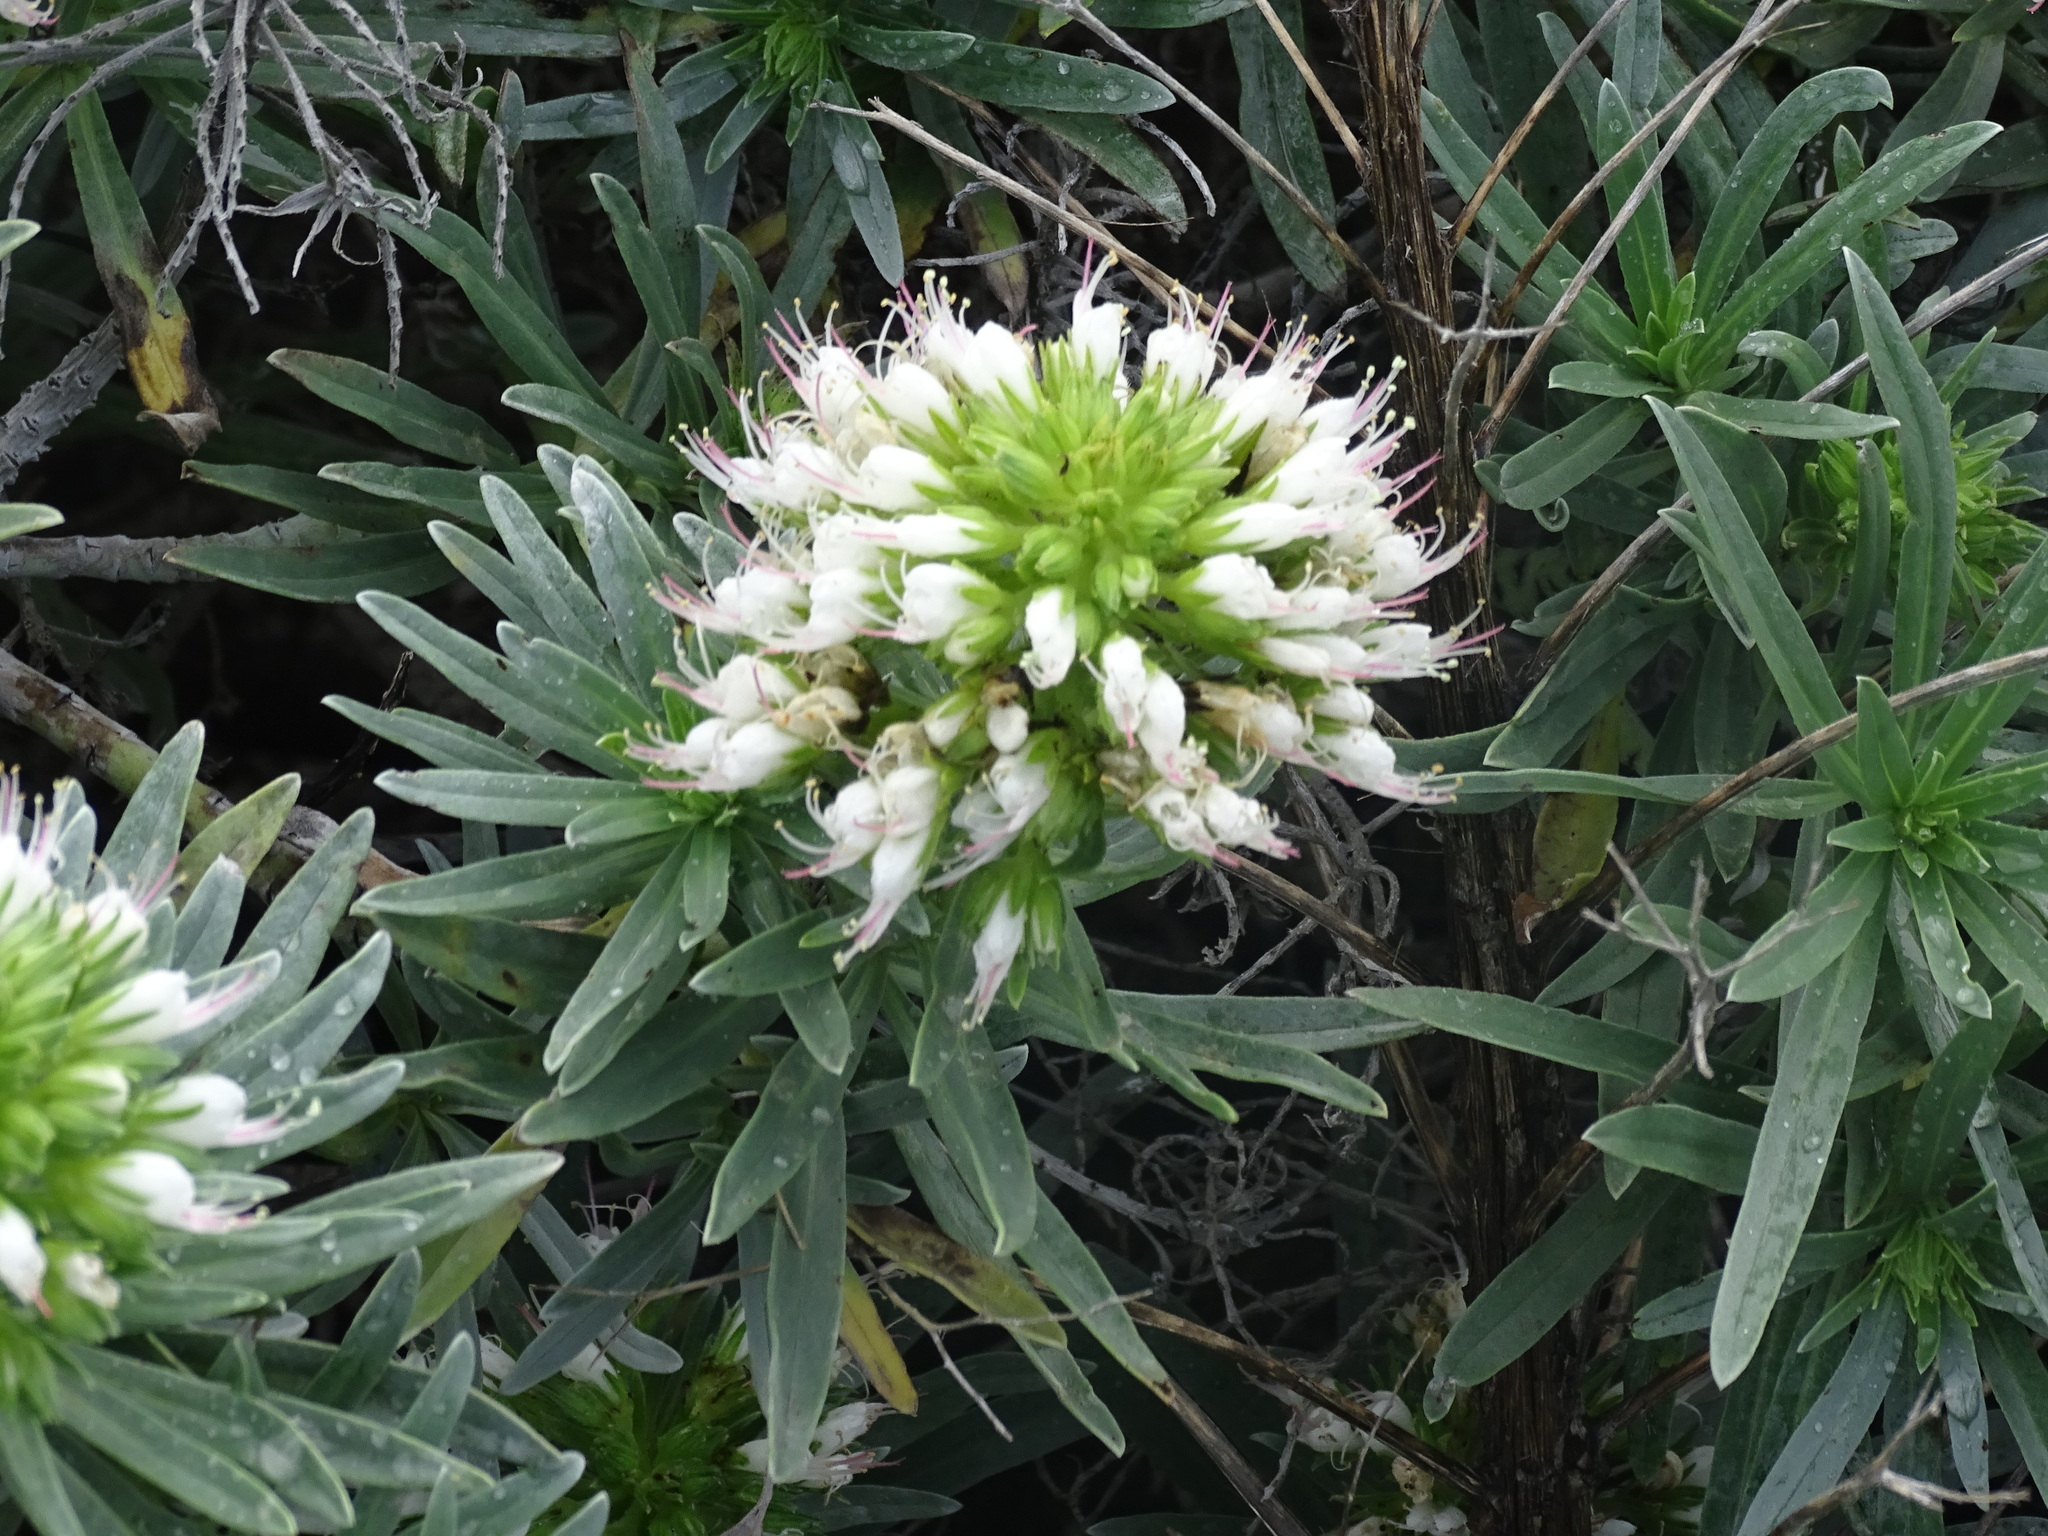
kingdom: Plantae
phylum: Tracheophyta
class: Magnoliopsida
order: Boraginales
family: Boraginaceae
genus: Echium
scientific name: Echium brevirame
